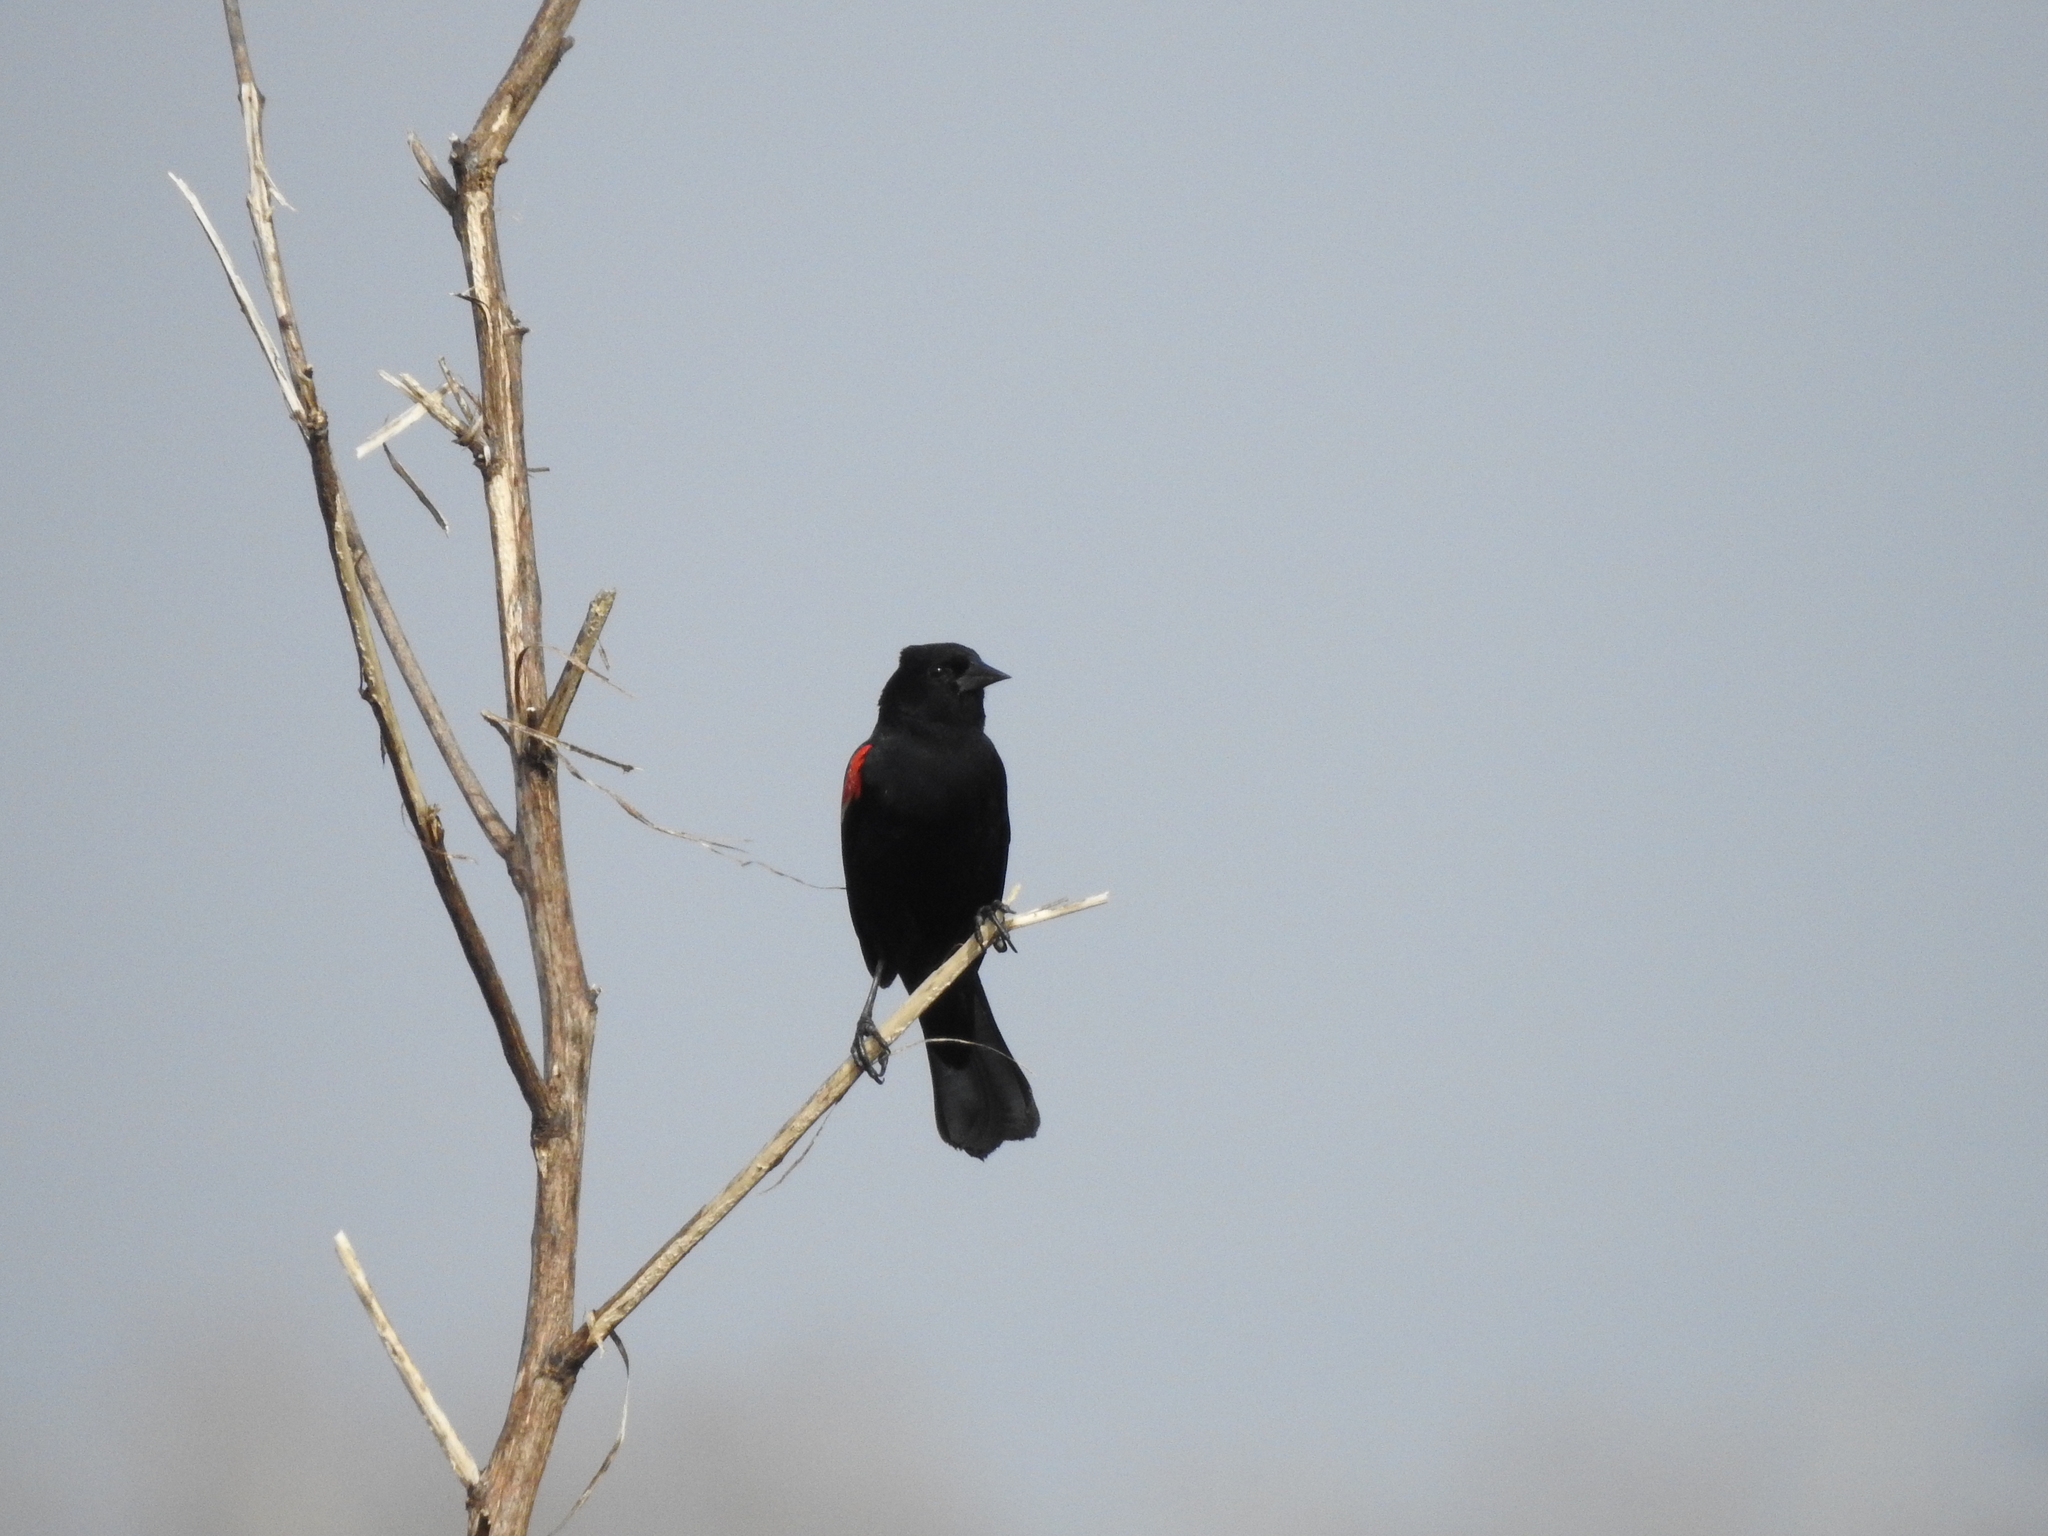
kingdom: Animalia
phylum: Chordata
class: Aves
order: Passeriformes
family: Icteridae
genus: Agelaius
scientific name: Agelaius phoeniceus
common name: Red-winged blackbird
